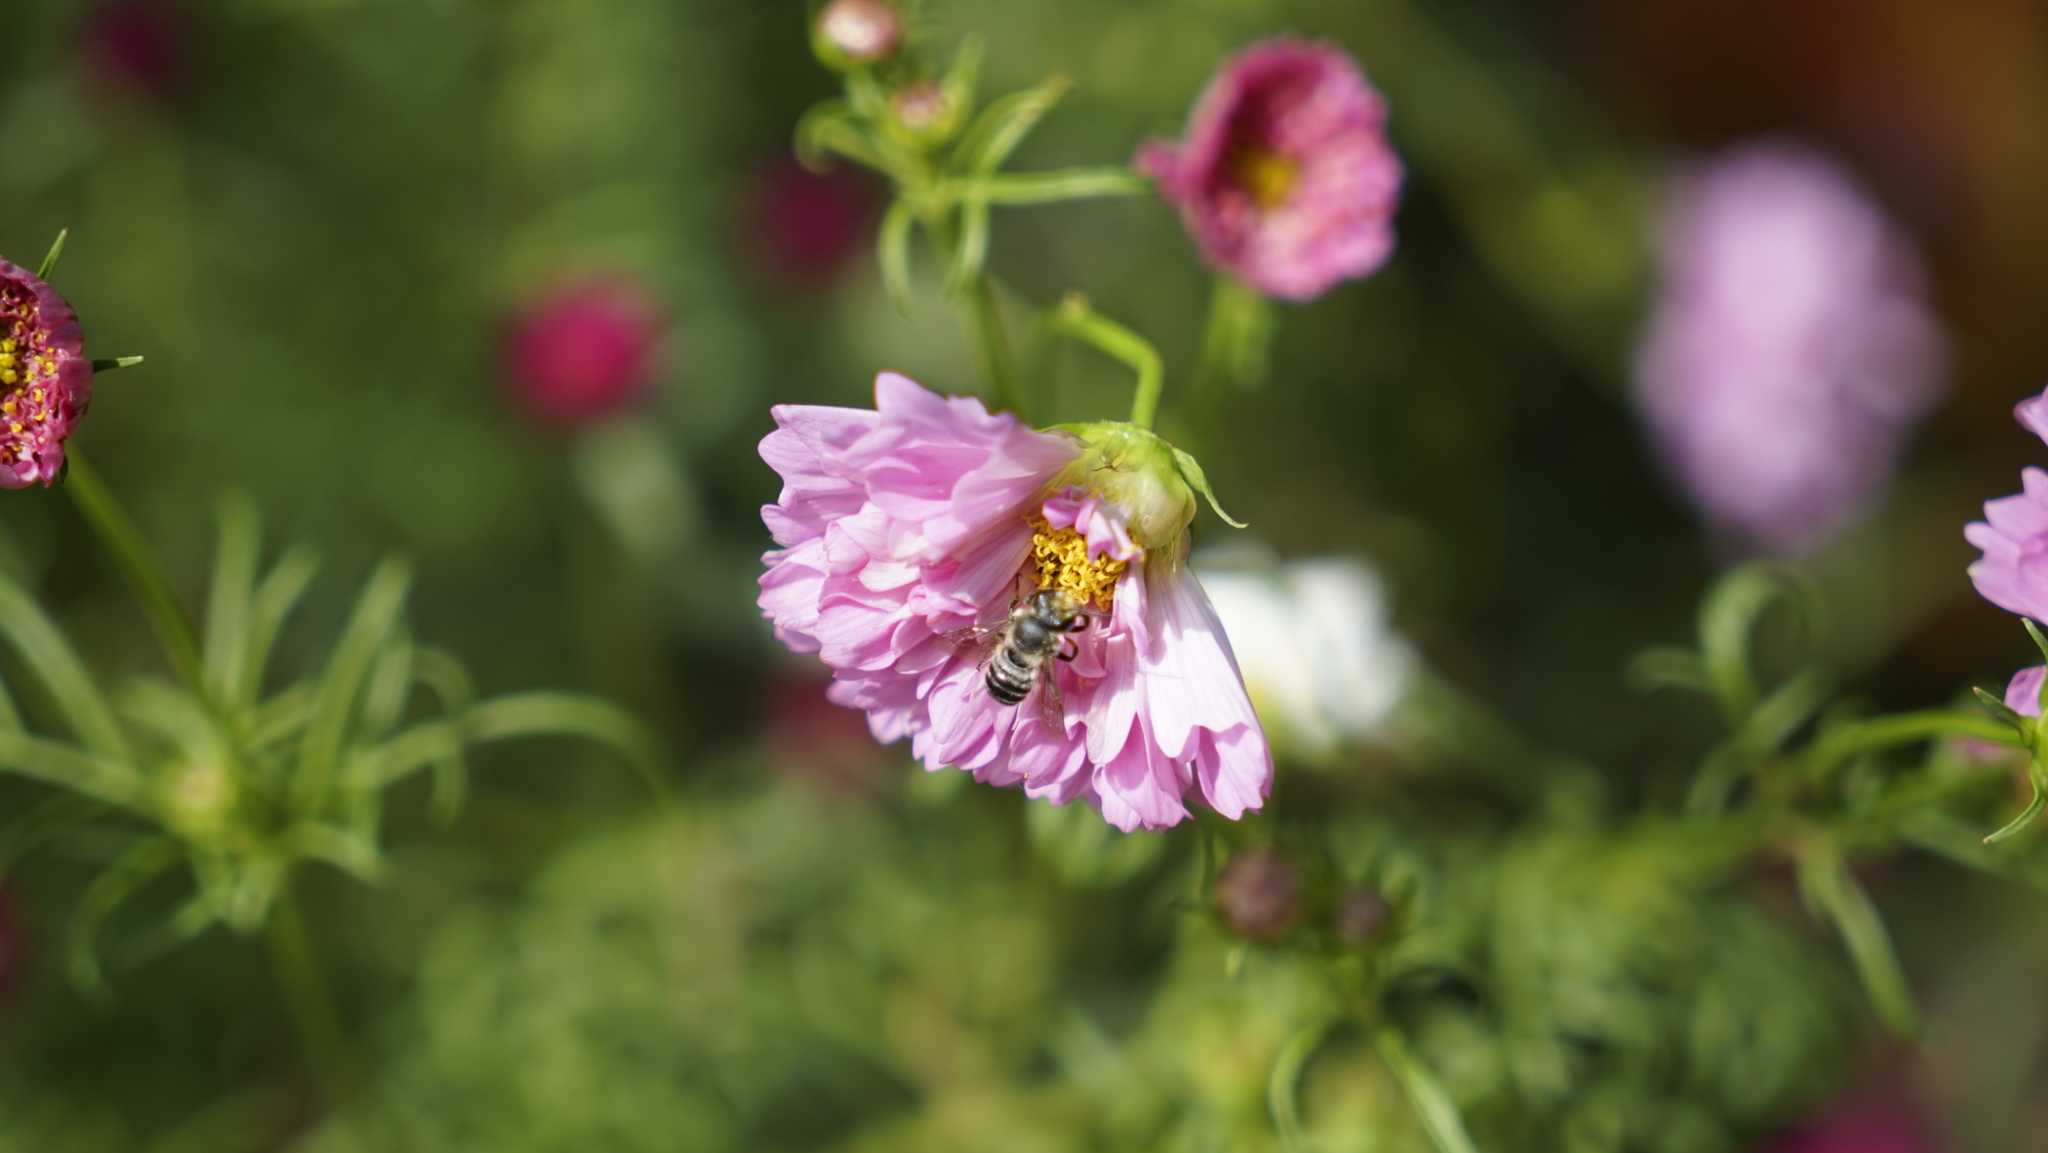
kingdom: Animalia
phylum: Arthropoda
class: Insecta
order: Hymenoptera
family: Megachilidae
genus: Megachile
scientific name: Megachile
